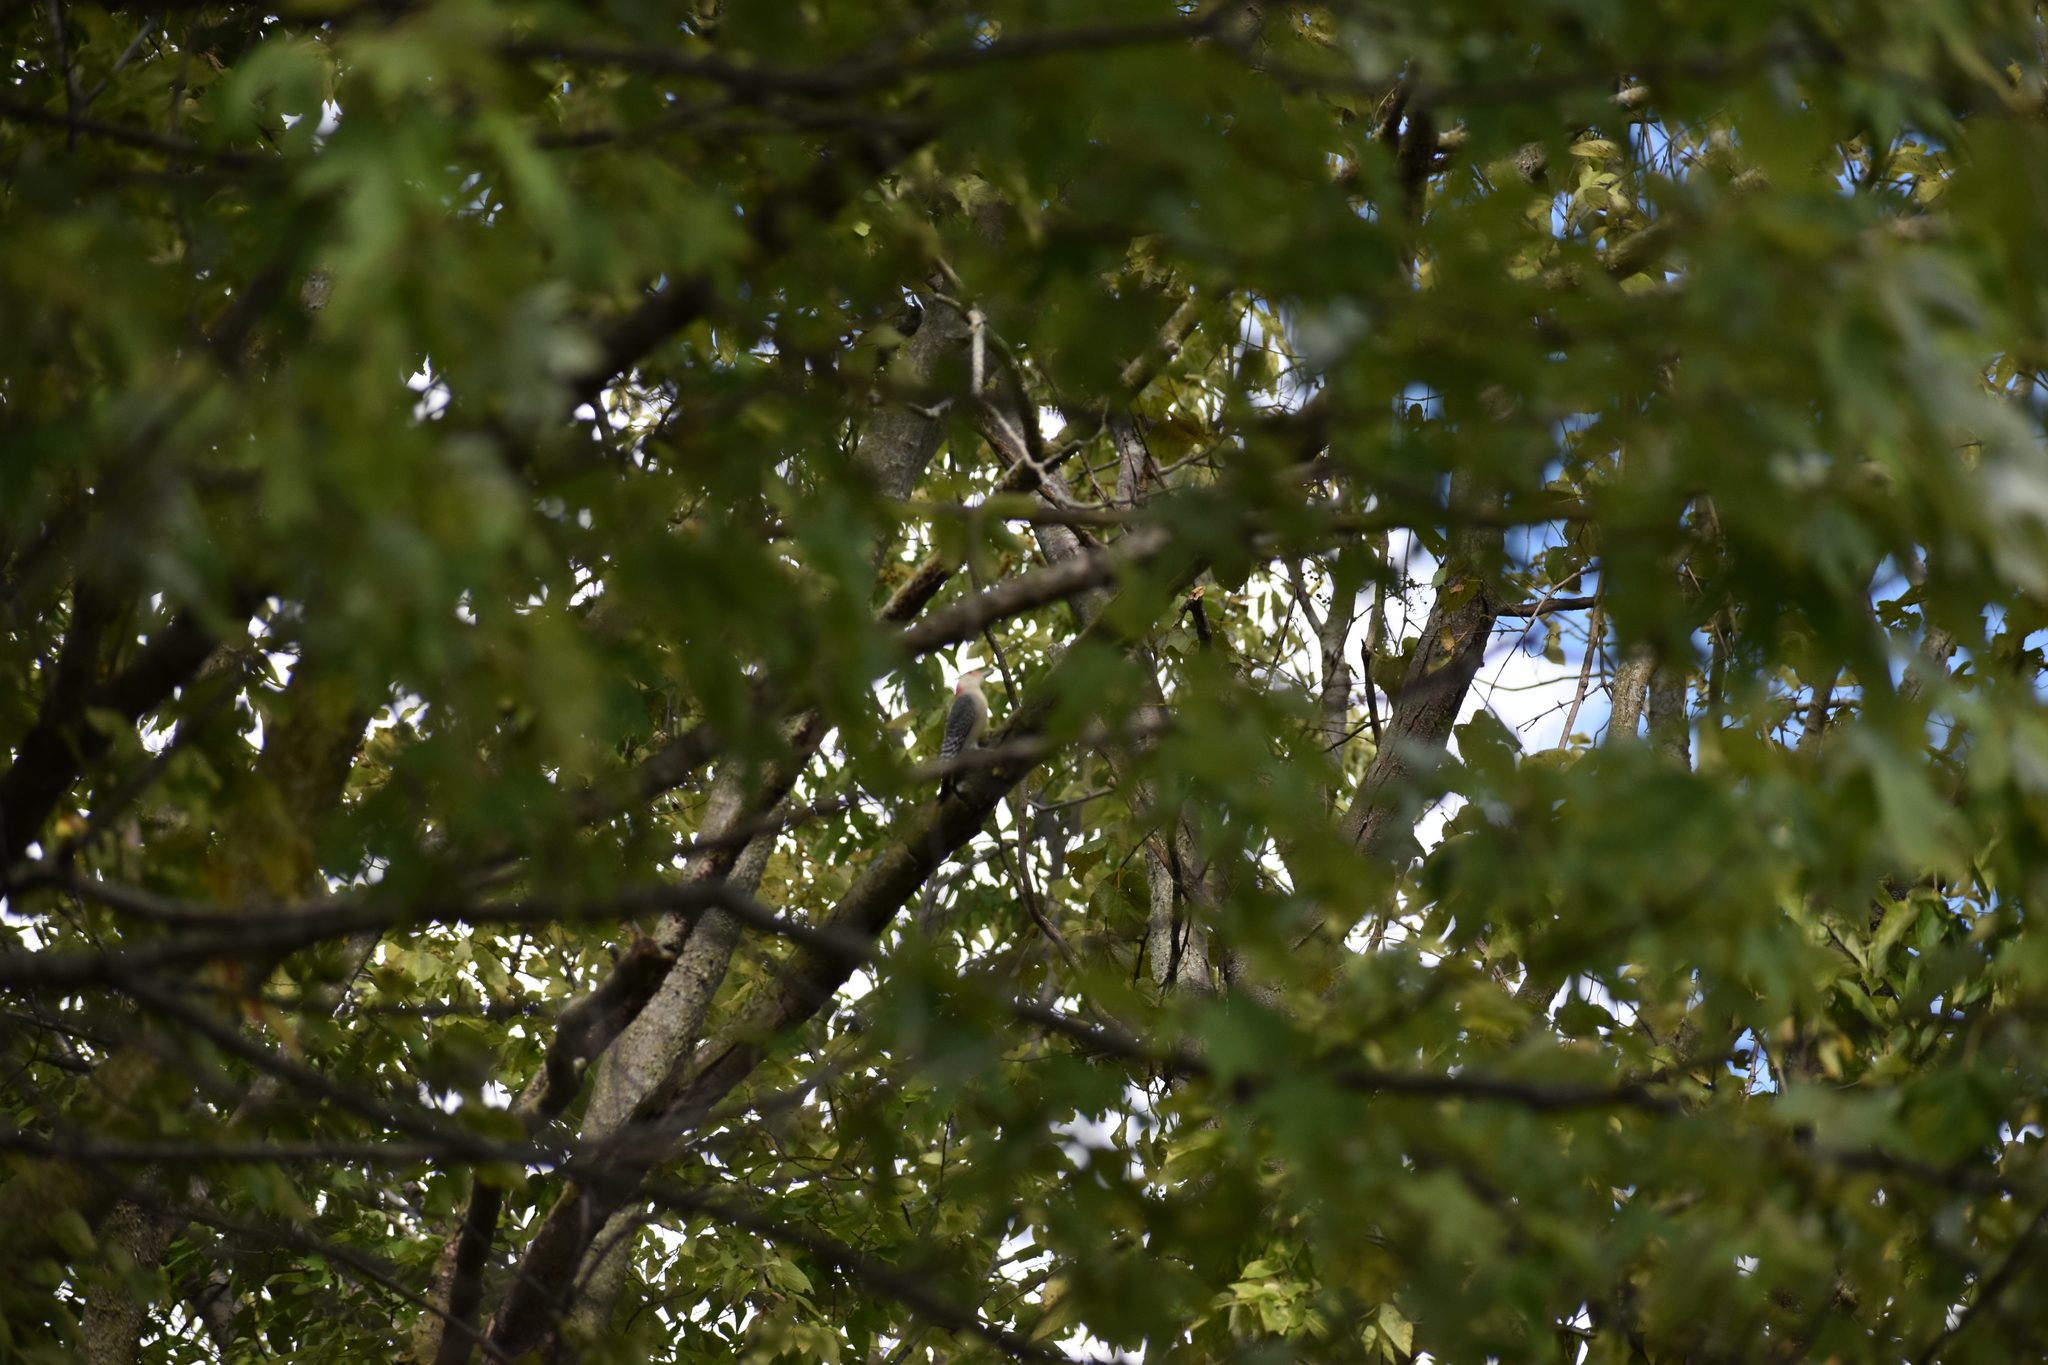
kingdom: Animalia
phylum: Chordata
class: Aves
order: Piciformes
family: Picidae
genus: Melanerpes
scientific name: Melanerpes carolinus
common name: Red-bellied woodpecker
